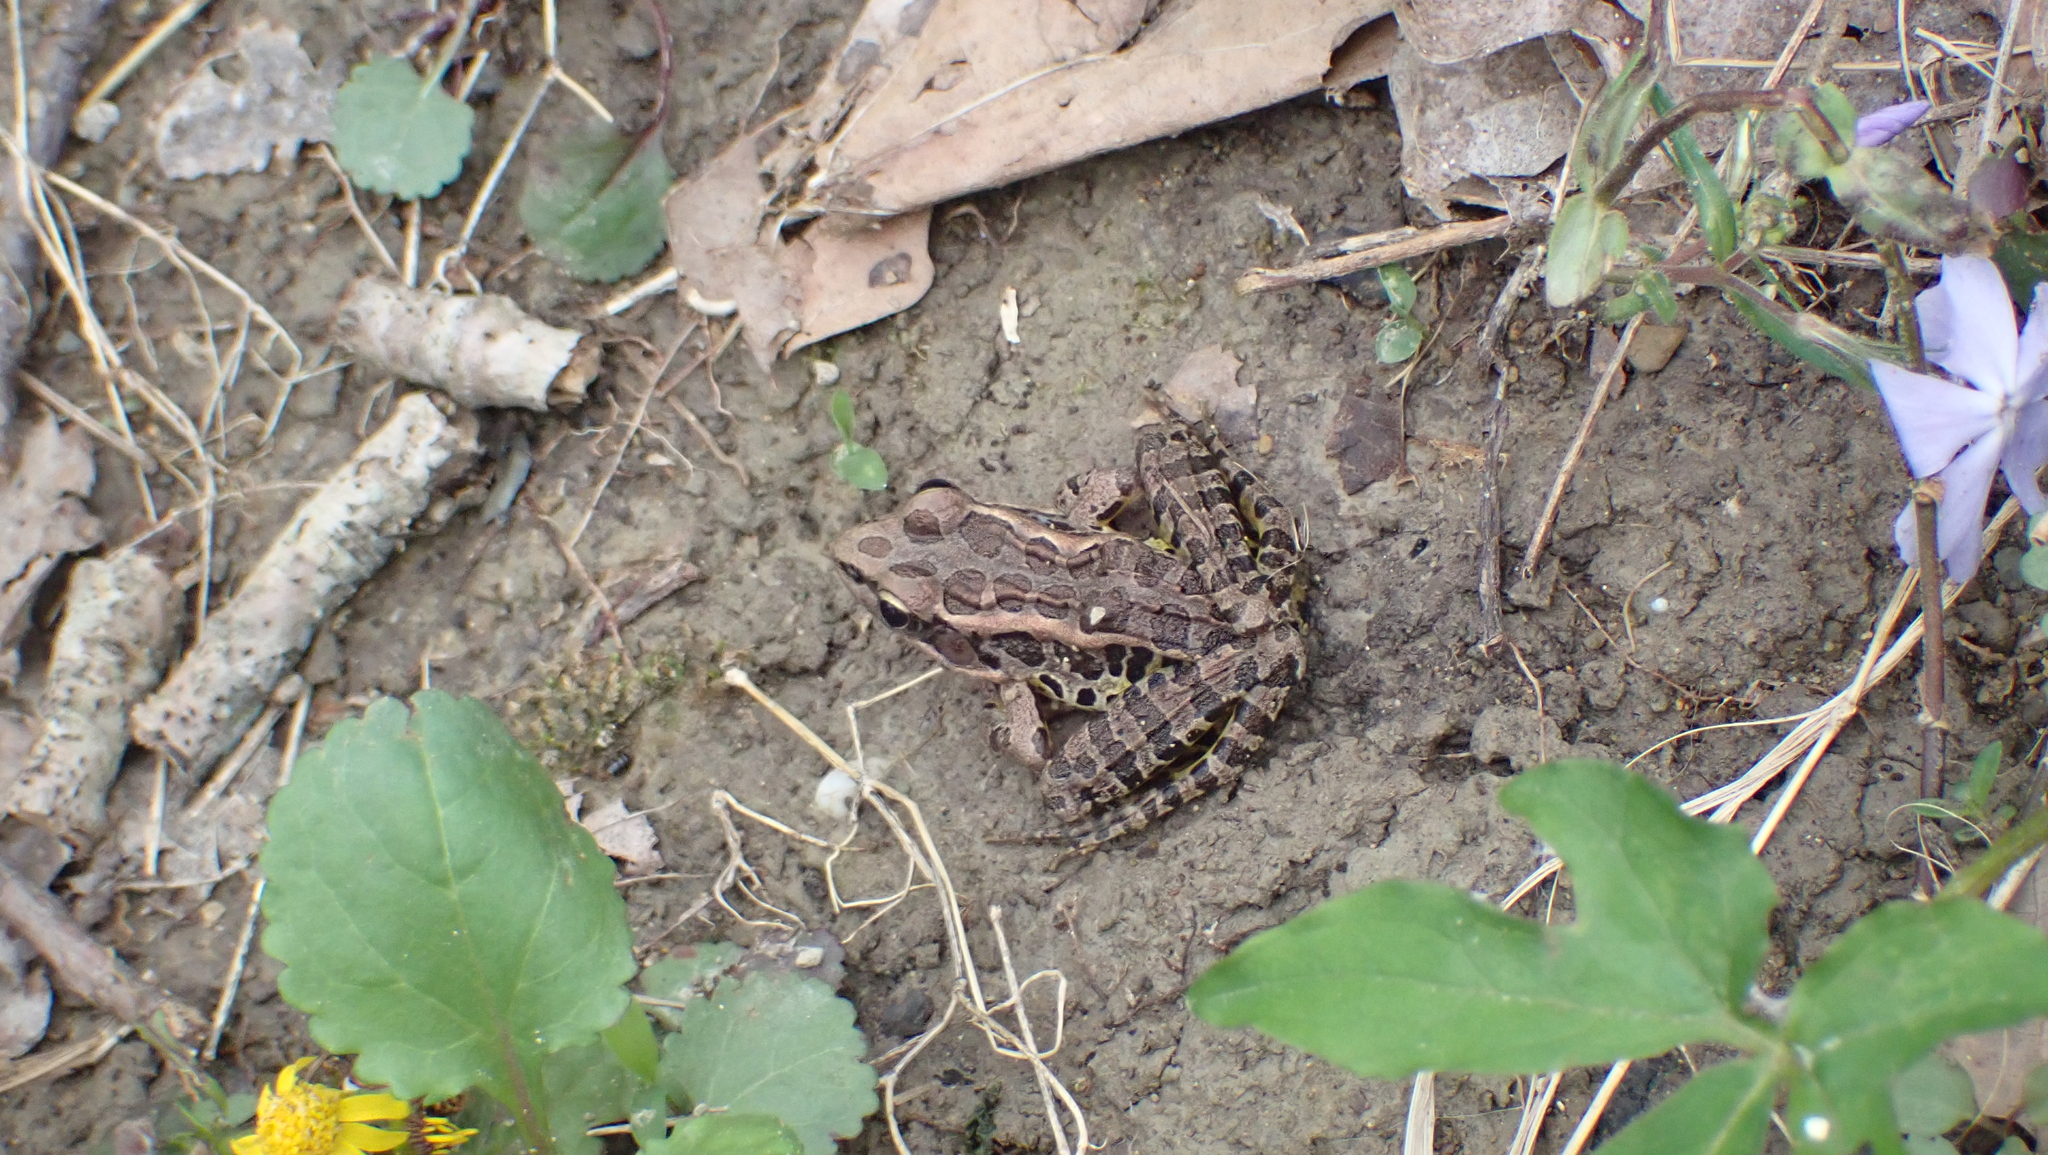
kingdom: Animalia
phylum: Chordata
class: Amphibia
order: Anura
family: Ranidae
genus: Lithobates
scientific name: Lithobates palustris
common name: Pickerel frog
